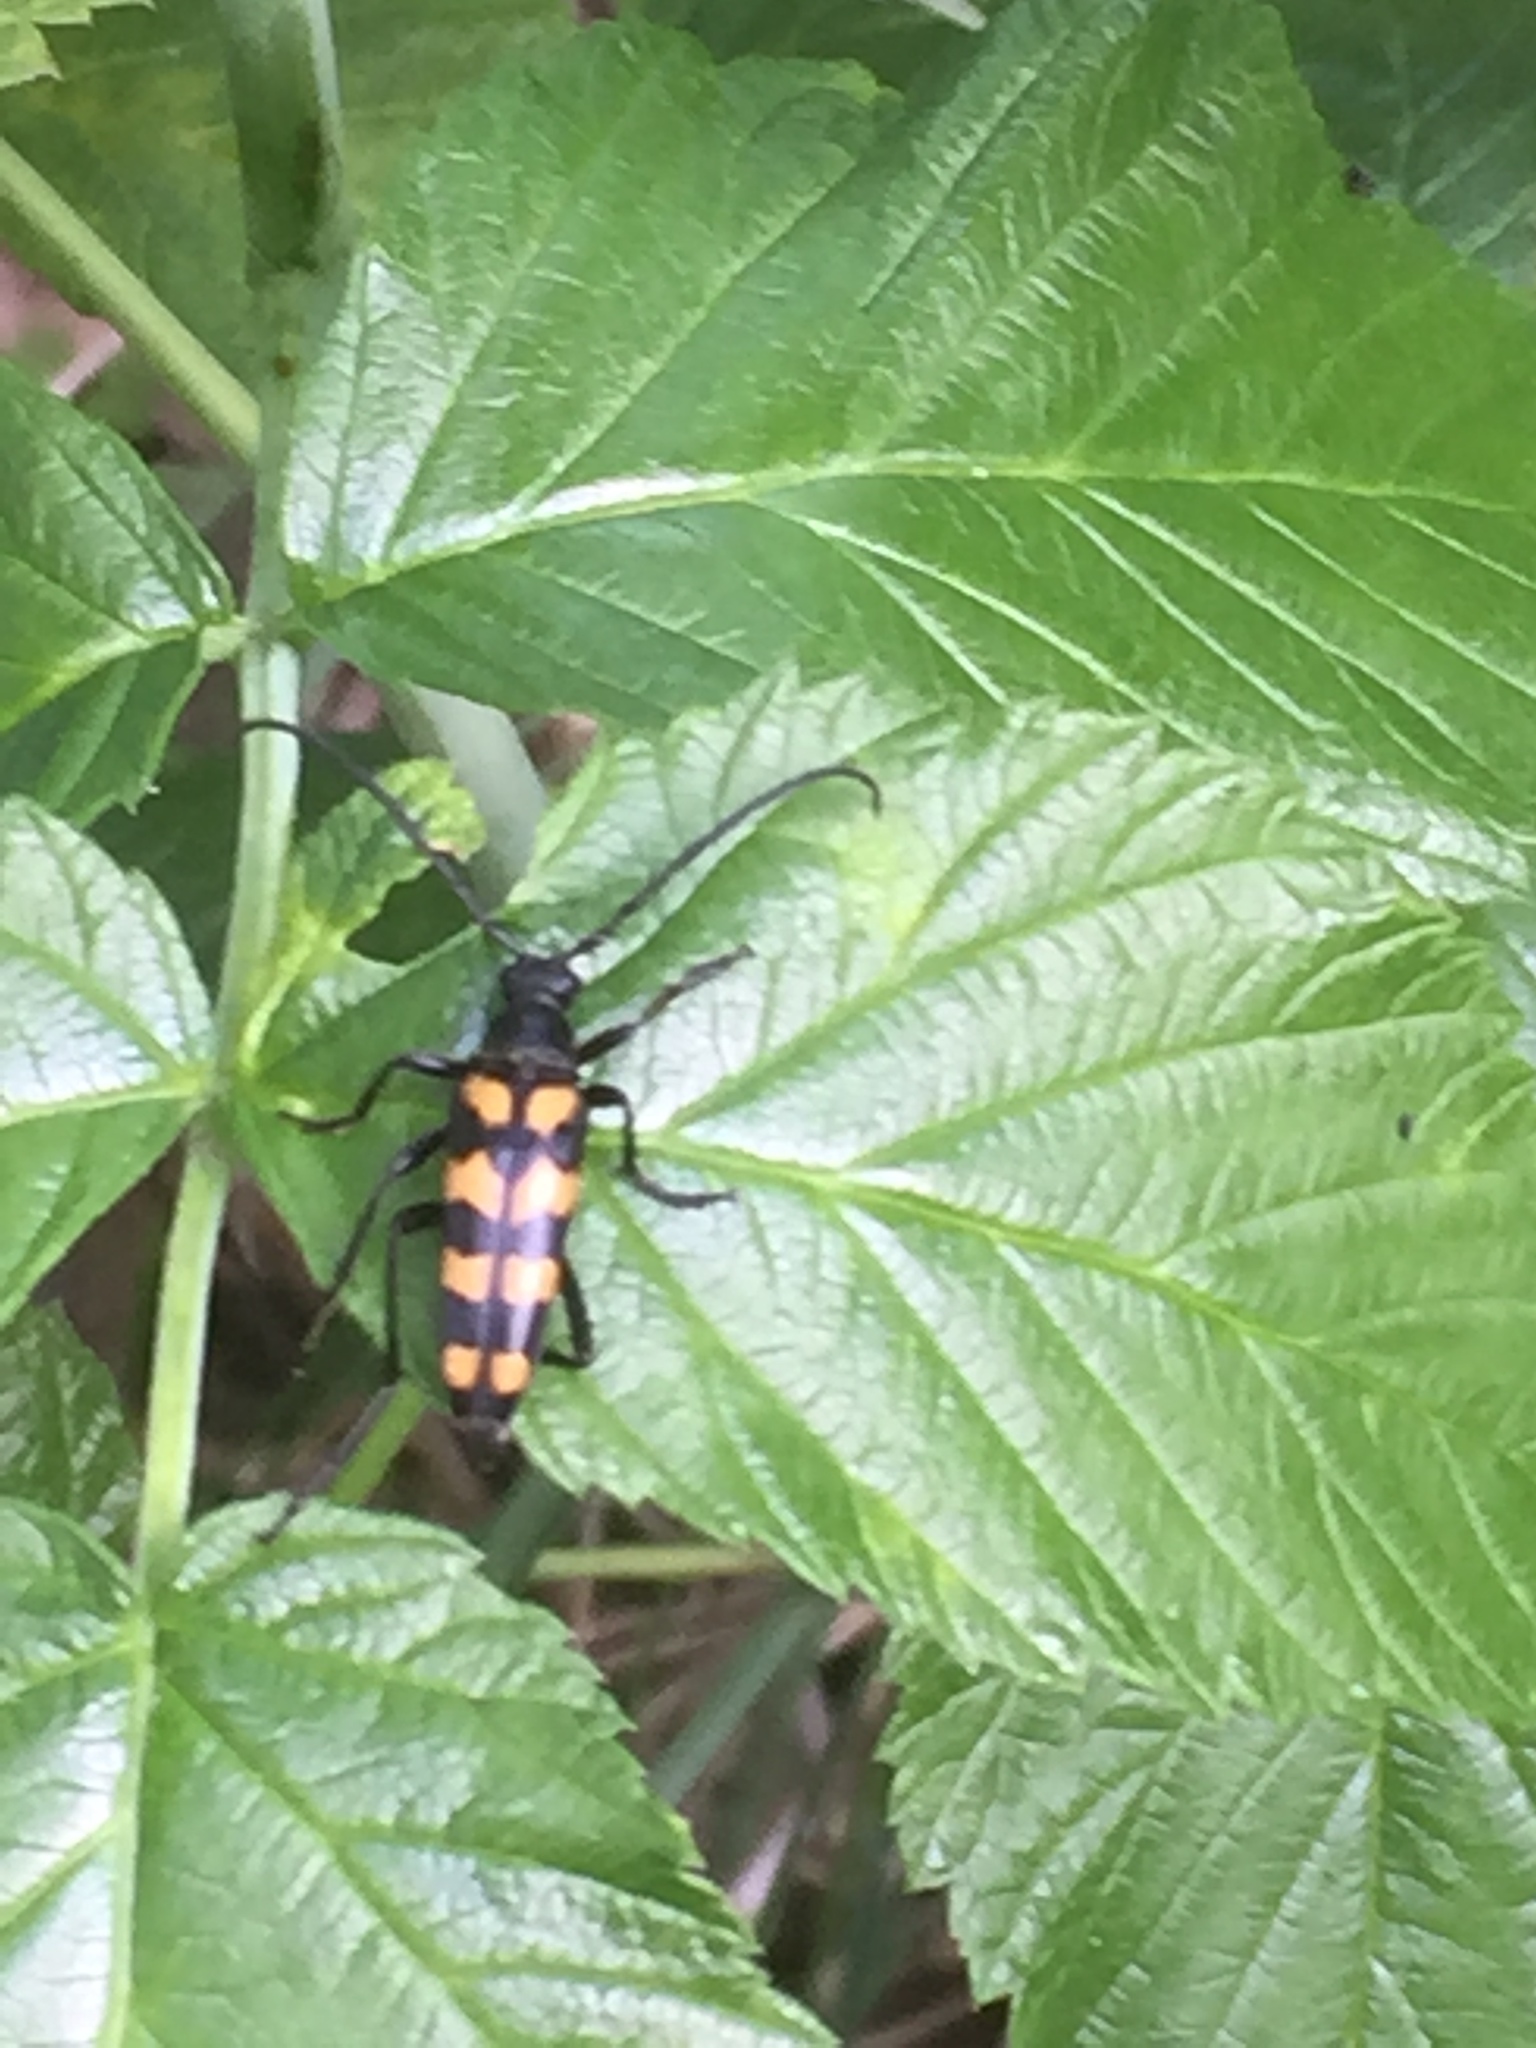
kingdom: Animalia
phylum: Arthropoda
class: Insecta
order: Coleoptera
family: Cerambycidae
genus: Leptura
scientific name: Leptura quadrifasciata
